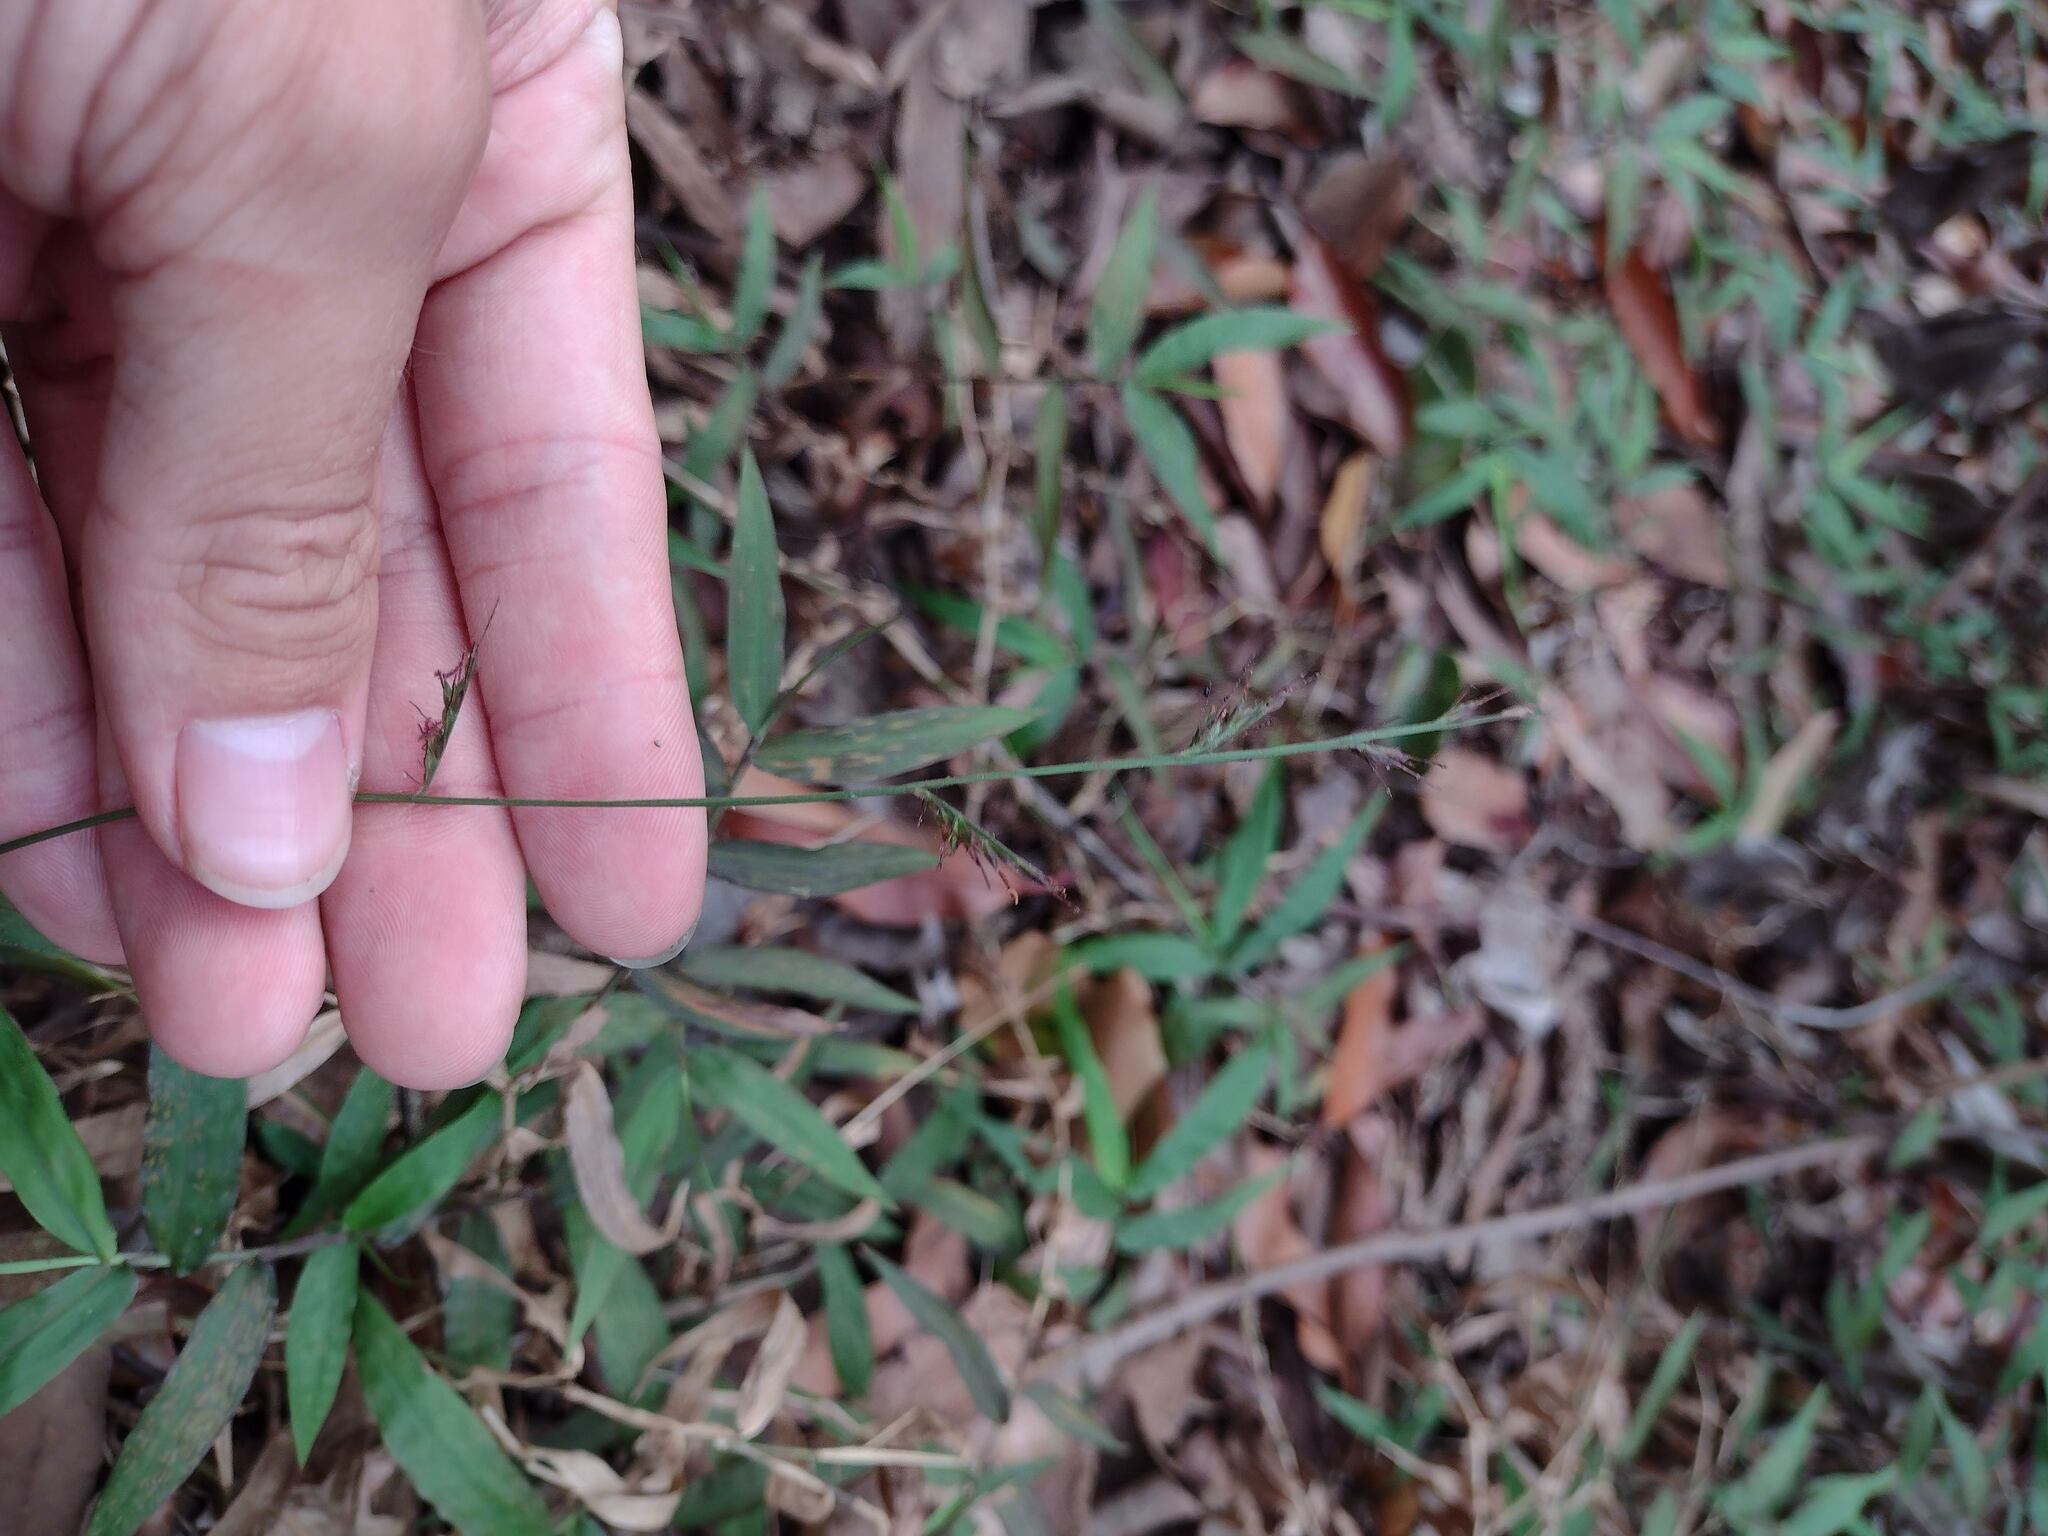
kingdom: Plantae
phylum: Tracheophyta
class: Liliopsida
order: Poales
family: Poaceae
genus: Oplismenus
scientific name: Oplismenus hirtellus
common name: Basketgrass
